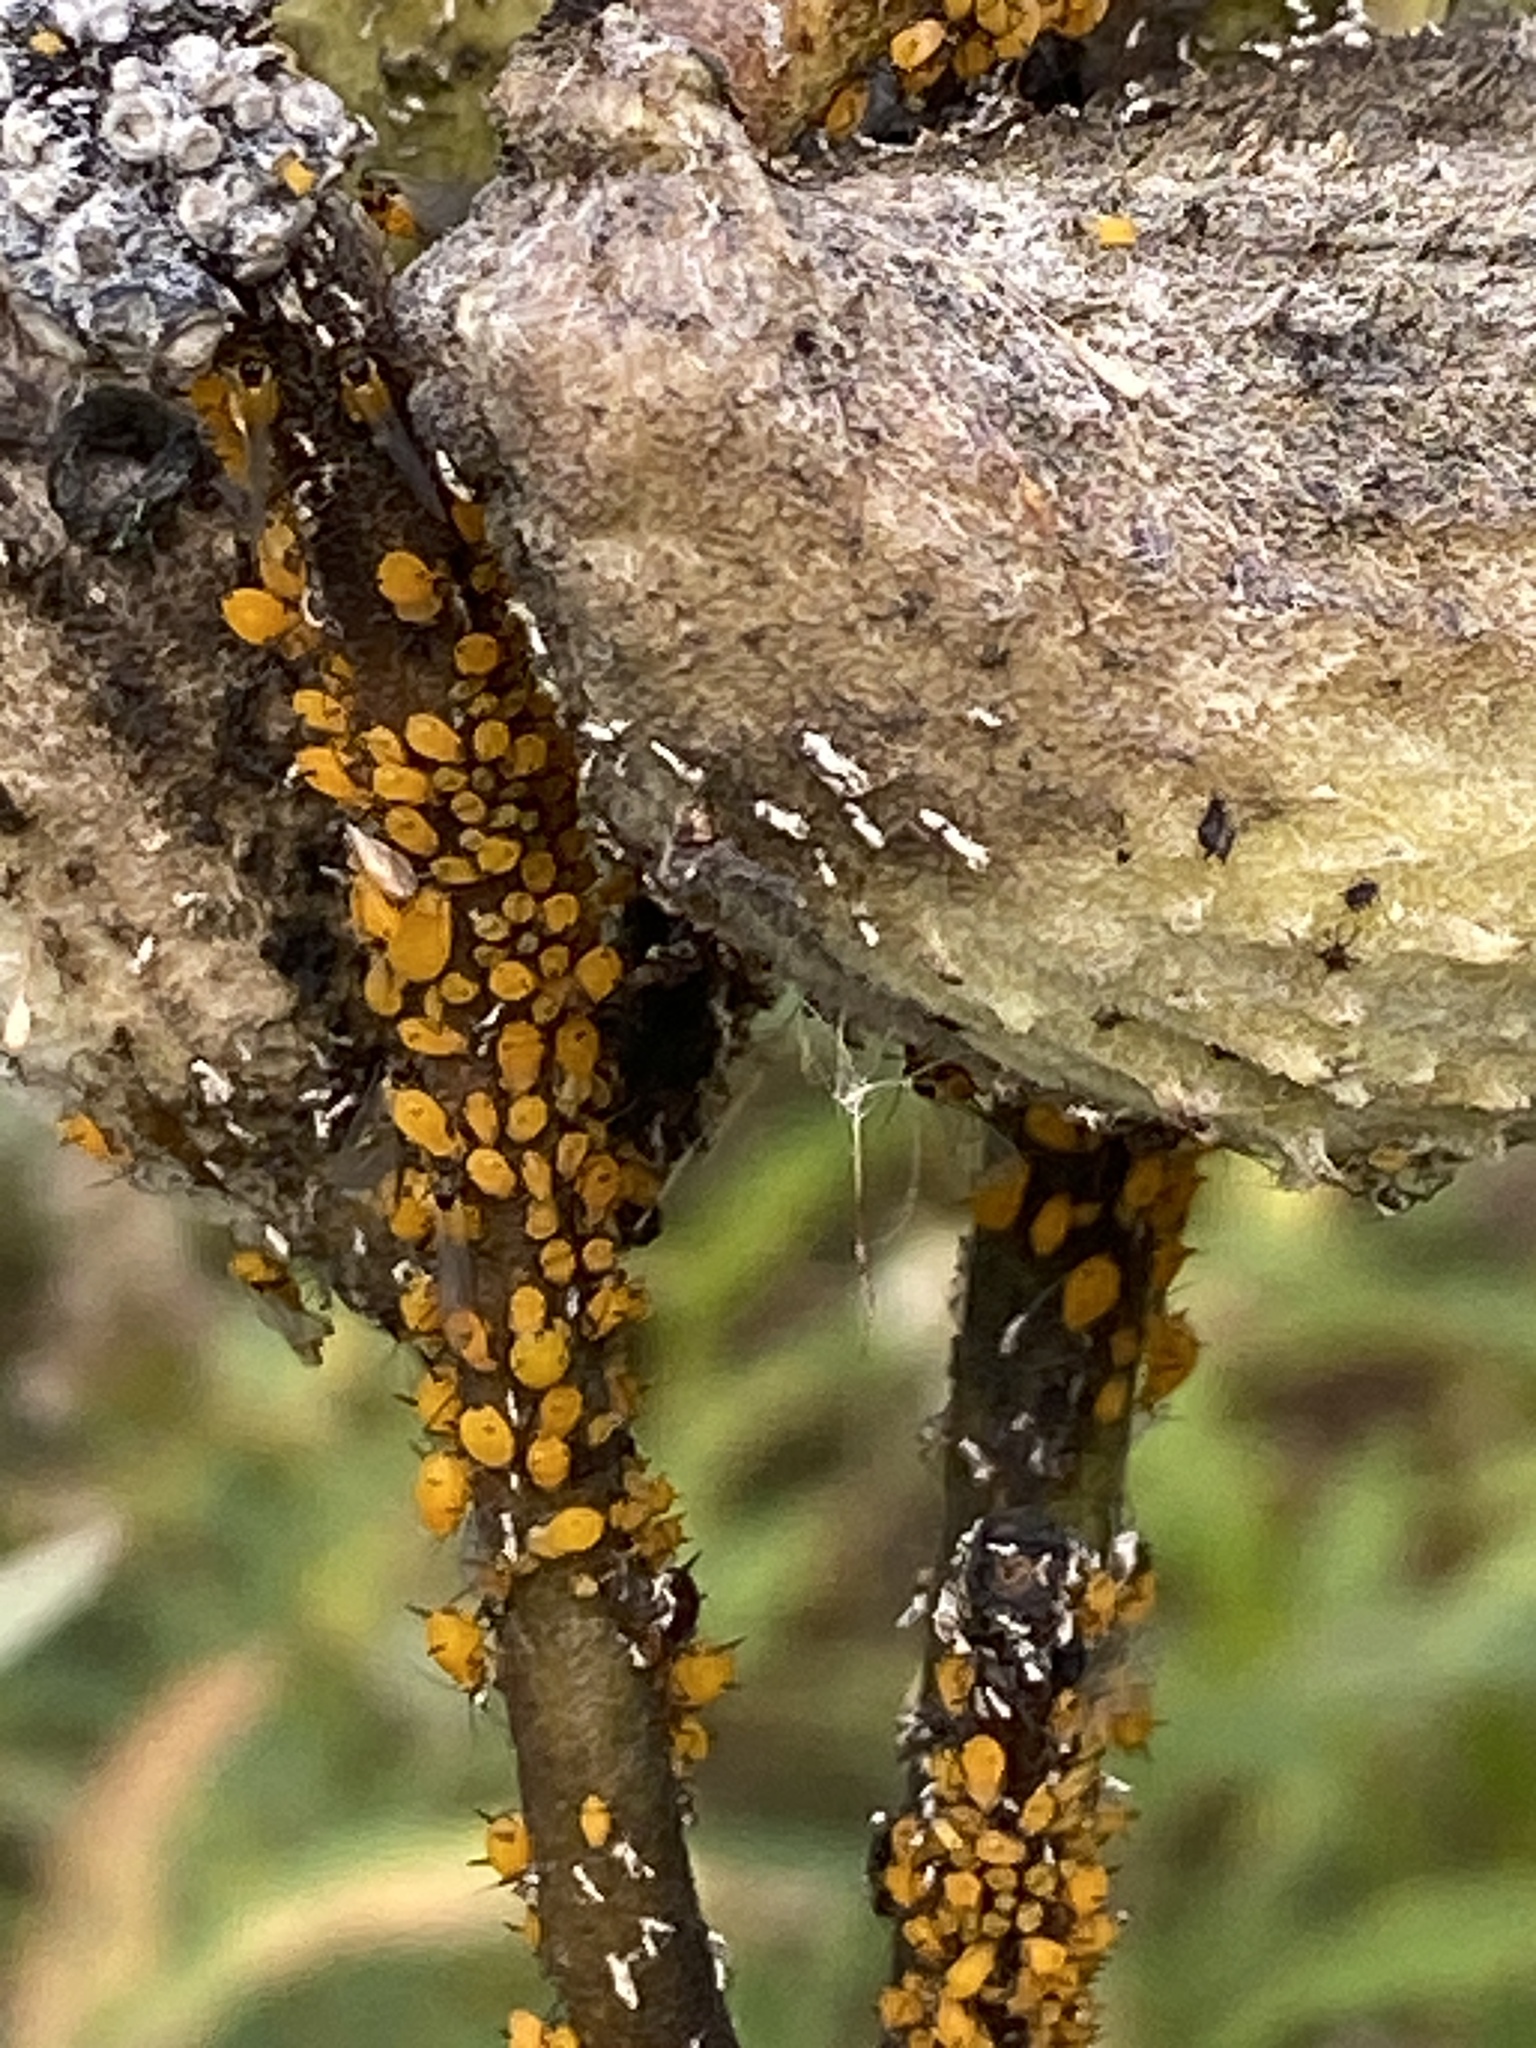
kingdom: Animalia
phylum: Arthropoda
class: Insecta
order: Hemiptera
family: Aphididae
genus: Aphis
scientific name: Aphis nerii
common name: Oleander aphid
